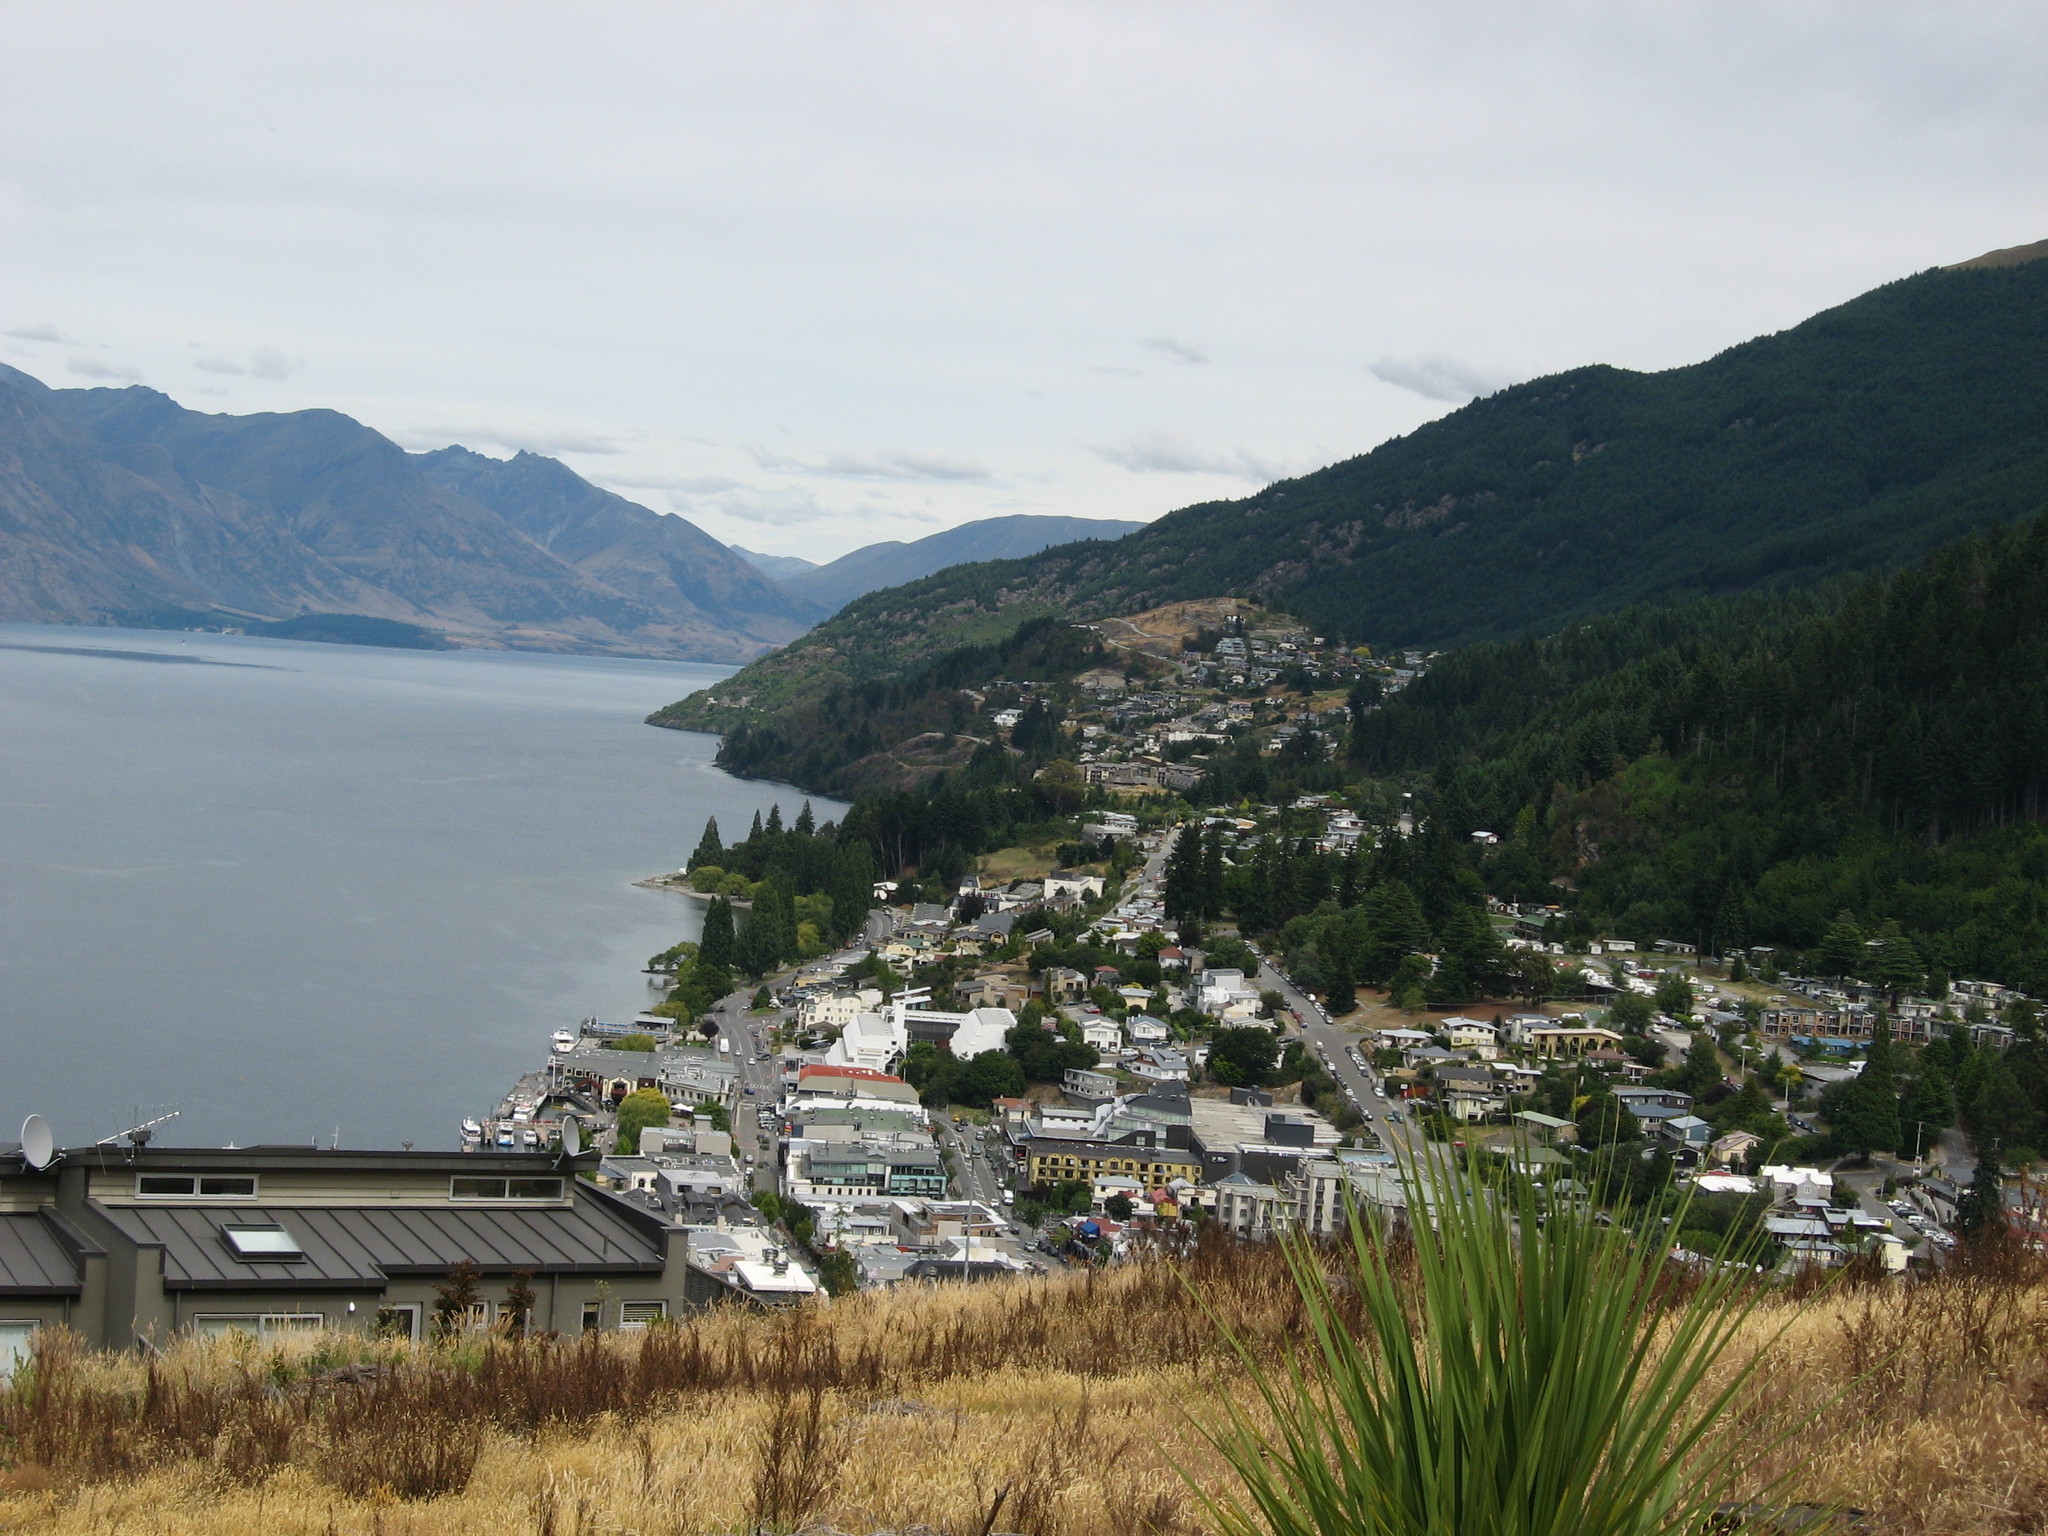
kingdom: Plantae
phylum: Tracheophyta
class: Liliopsida
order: Asparagales
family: Asparagaceae
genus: Cordyline
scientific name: Cordyline australis
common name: Cabbage-palm
